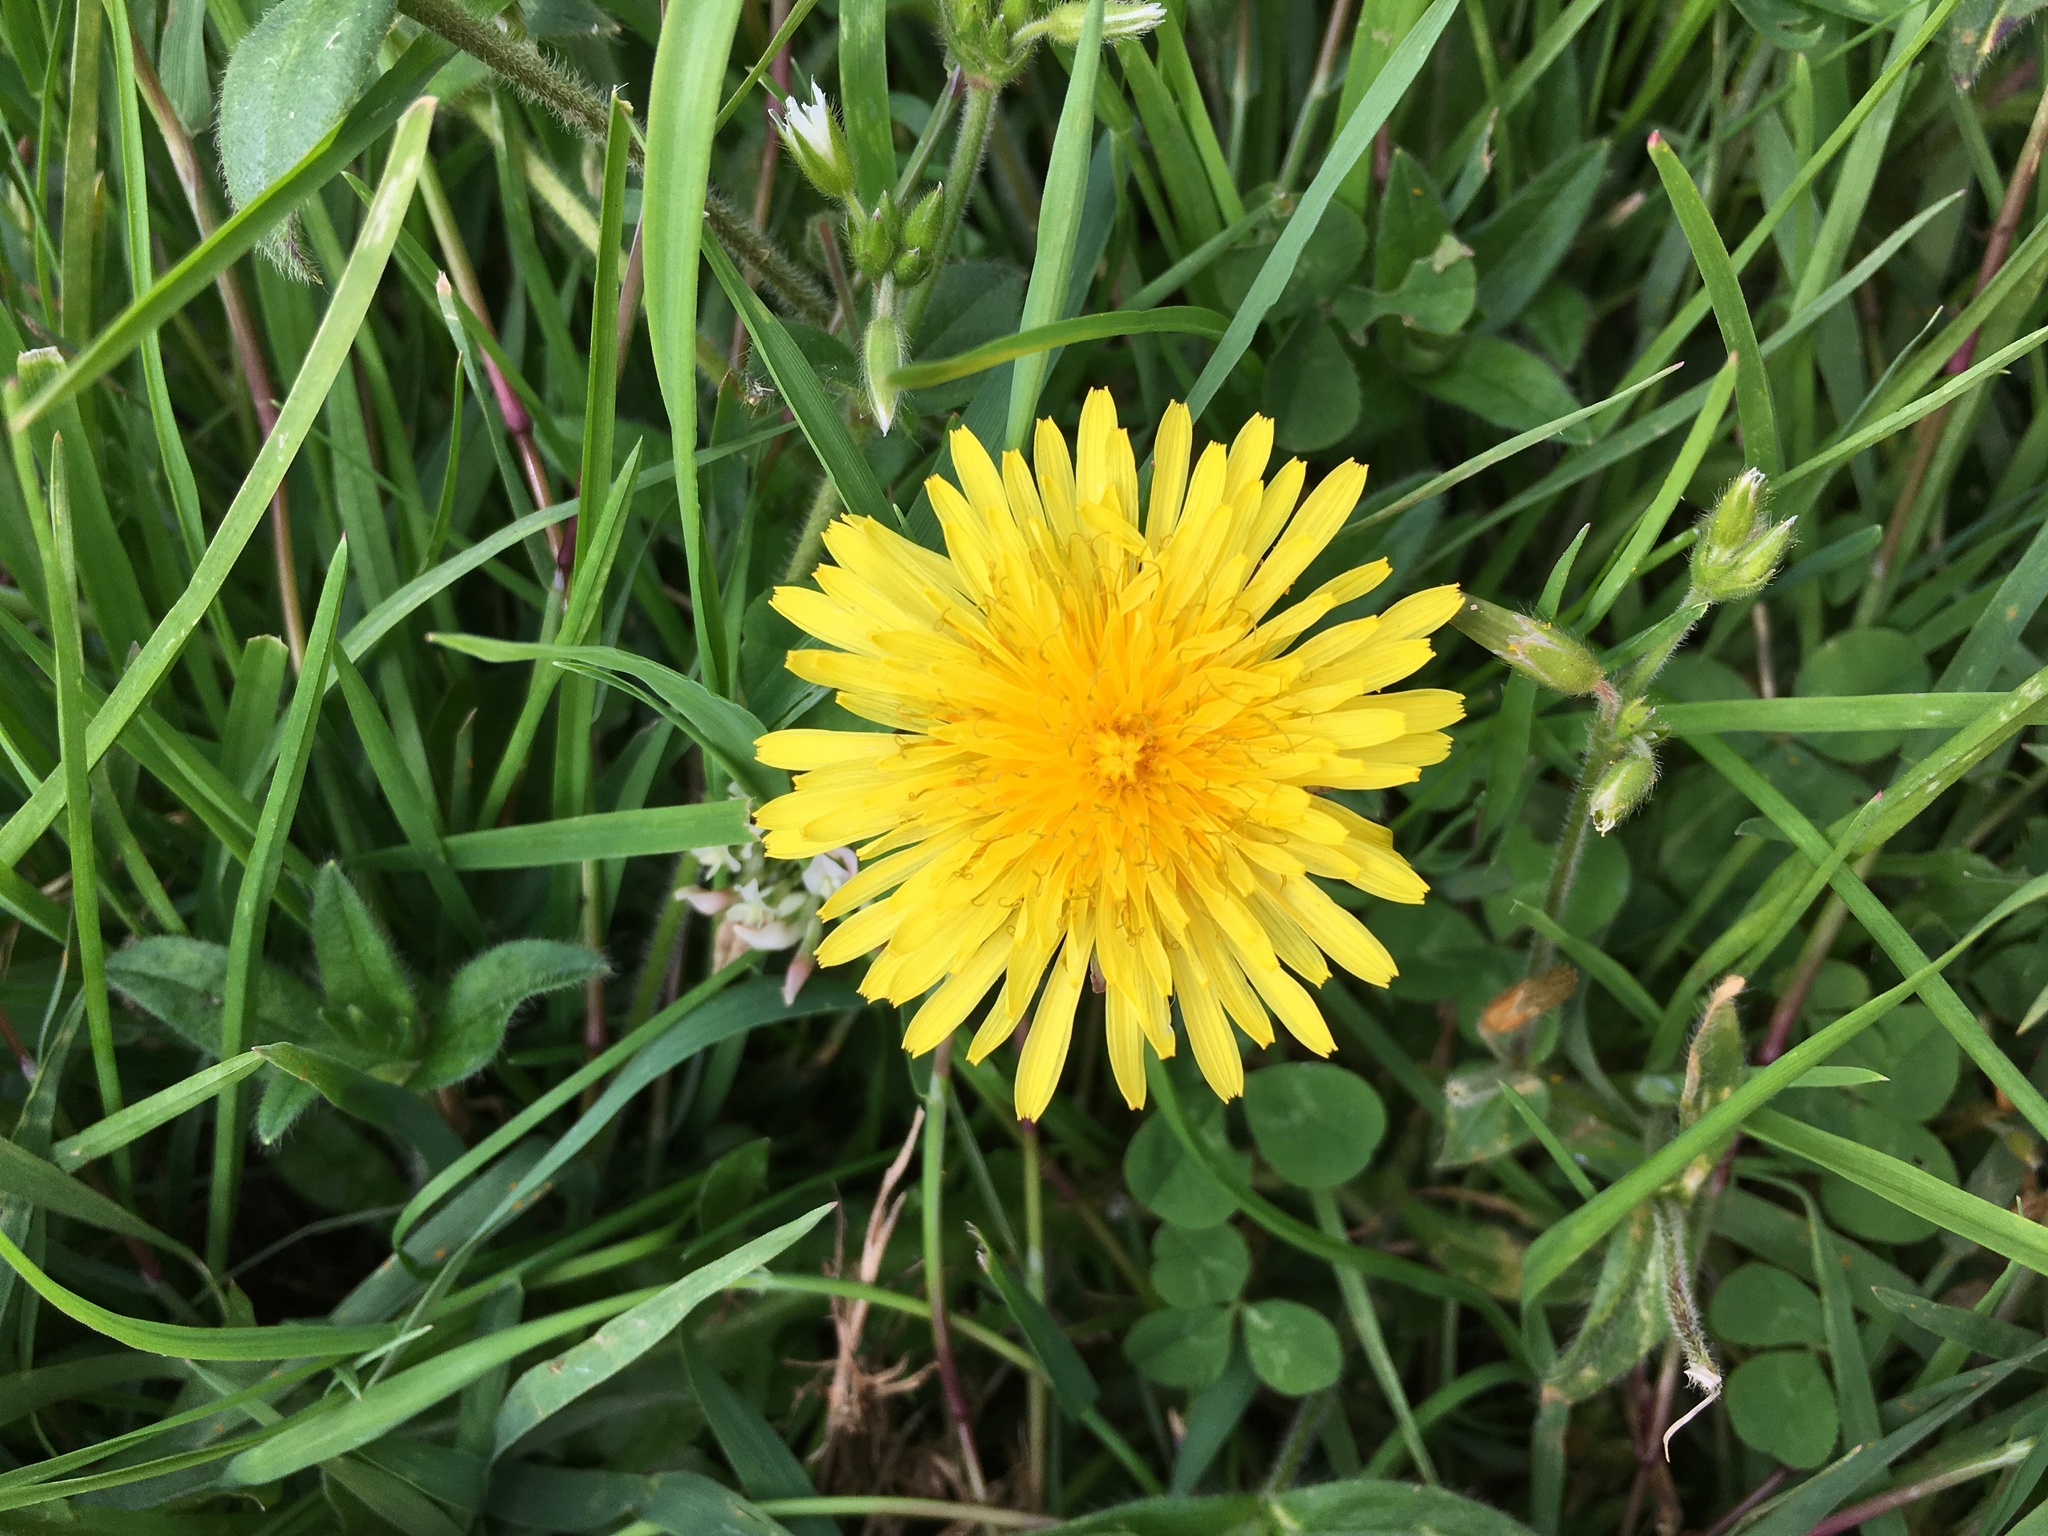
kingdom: Plantae
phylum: Tracheophyta
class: Magnoliopsida
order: Asterales
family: Asteraceae
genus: Taraxacum
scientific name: Taraxacum officinale
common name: Common dandelion
